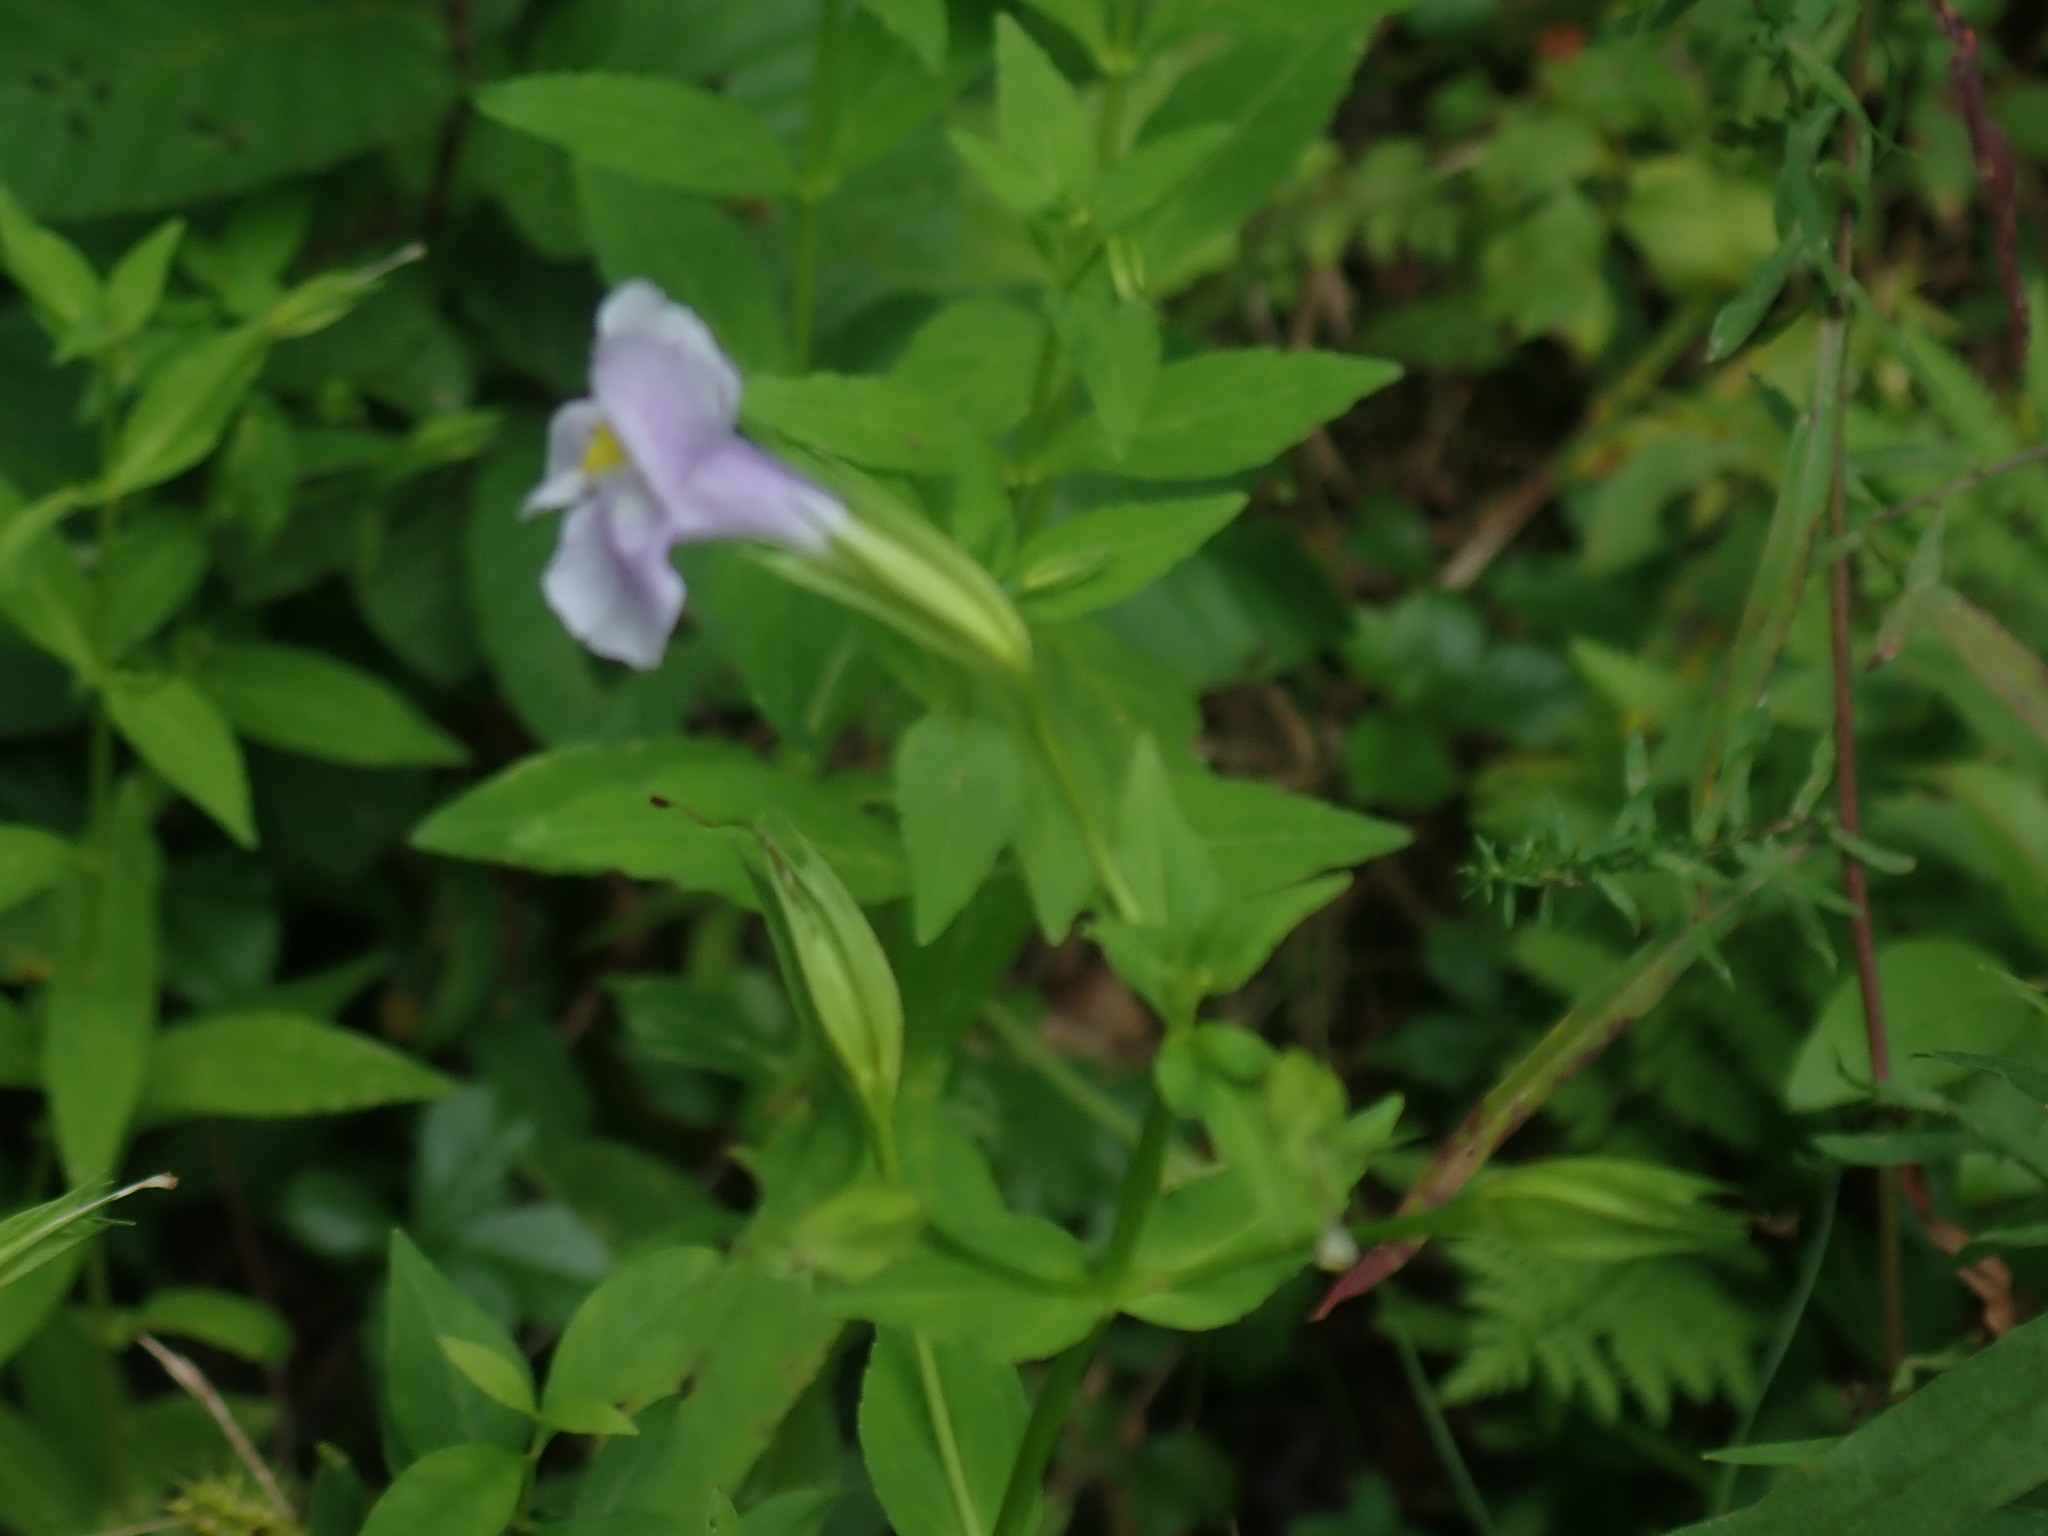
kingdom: Plantae
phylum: Tracheophyta
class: Magnoliopsida
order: Lamiales
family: Phrymaceae
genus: Mimulus
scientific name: Mimulus ringens
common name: Allegheny monkeyflower
